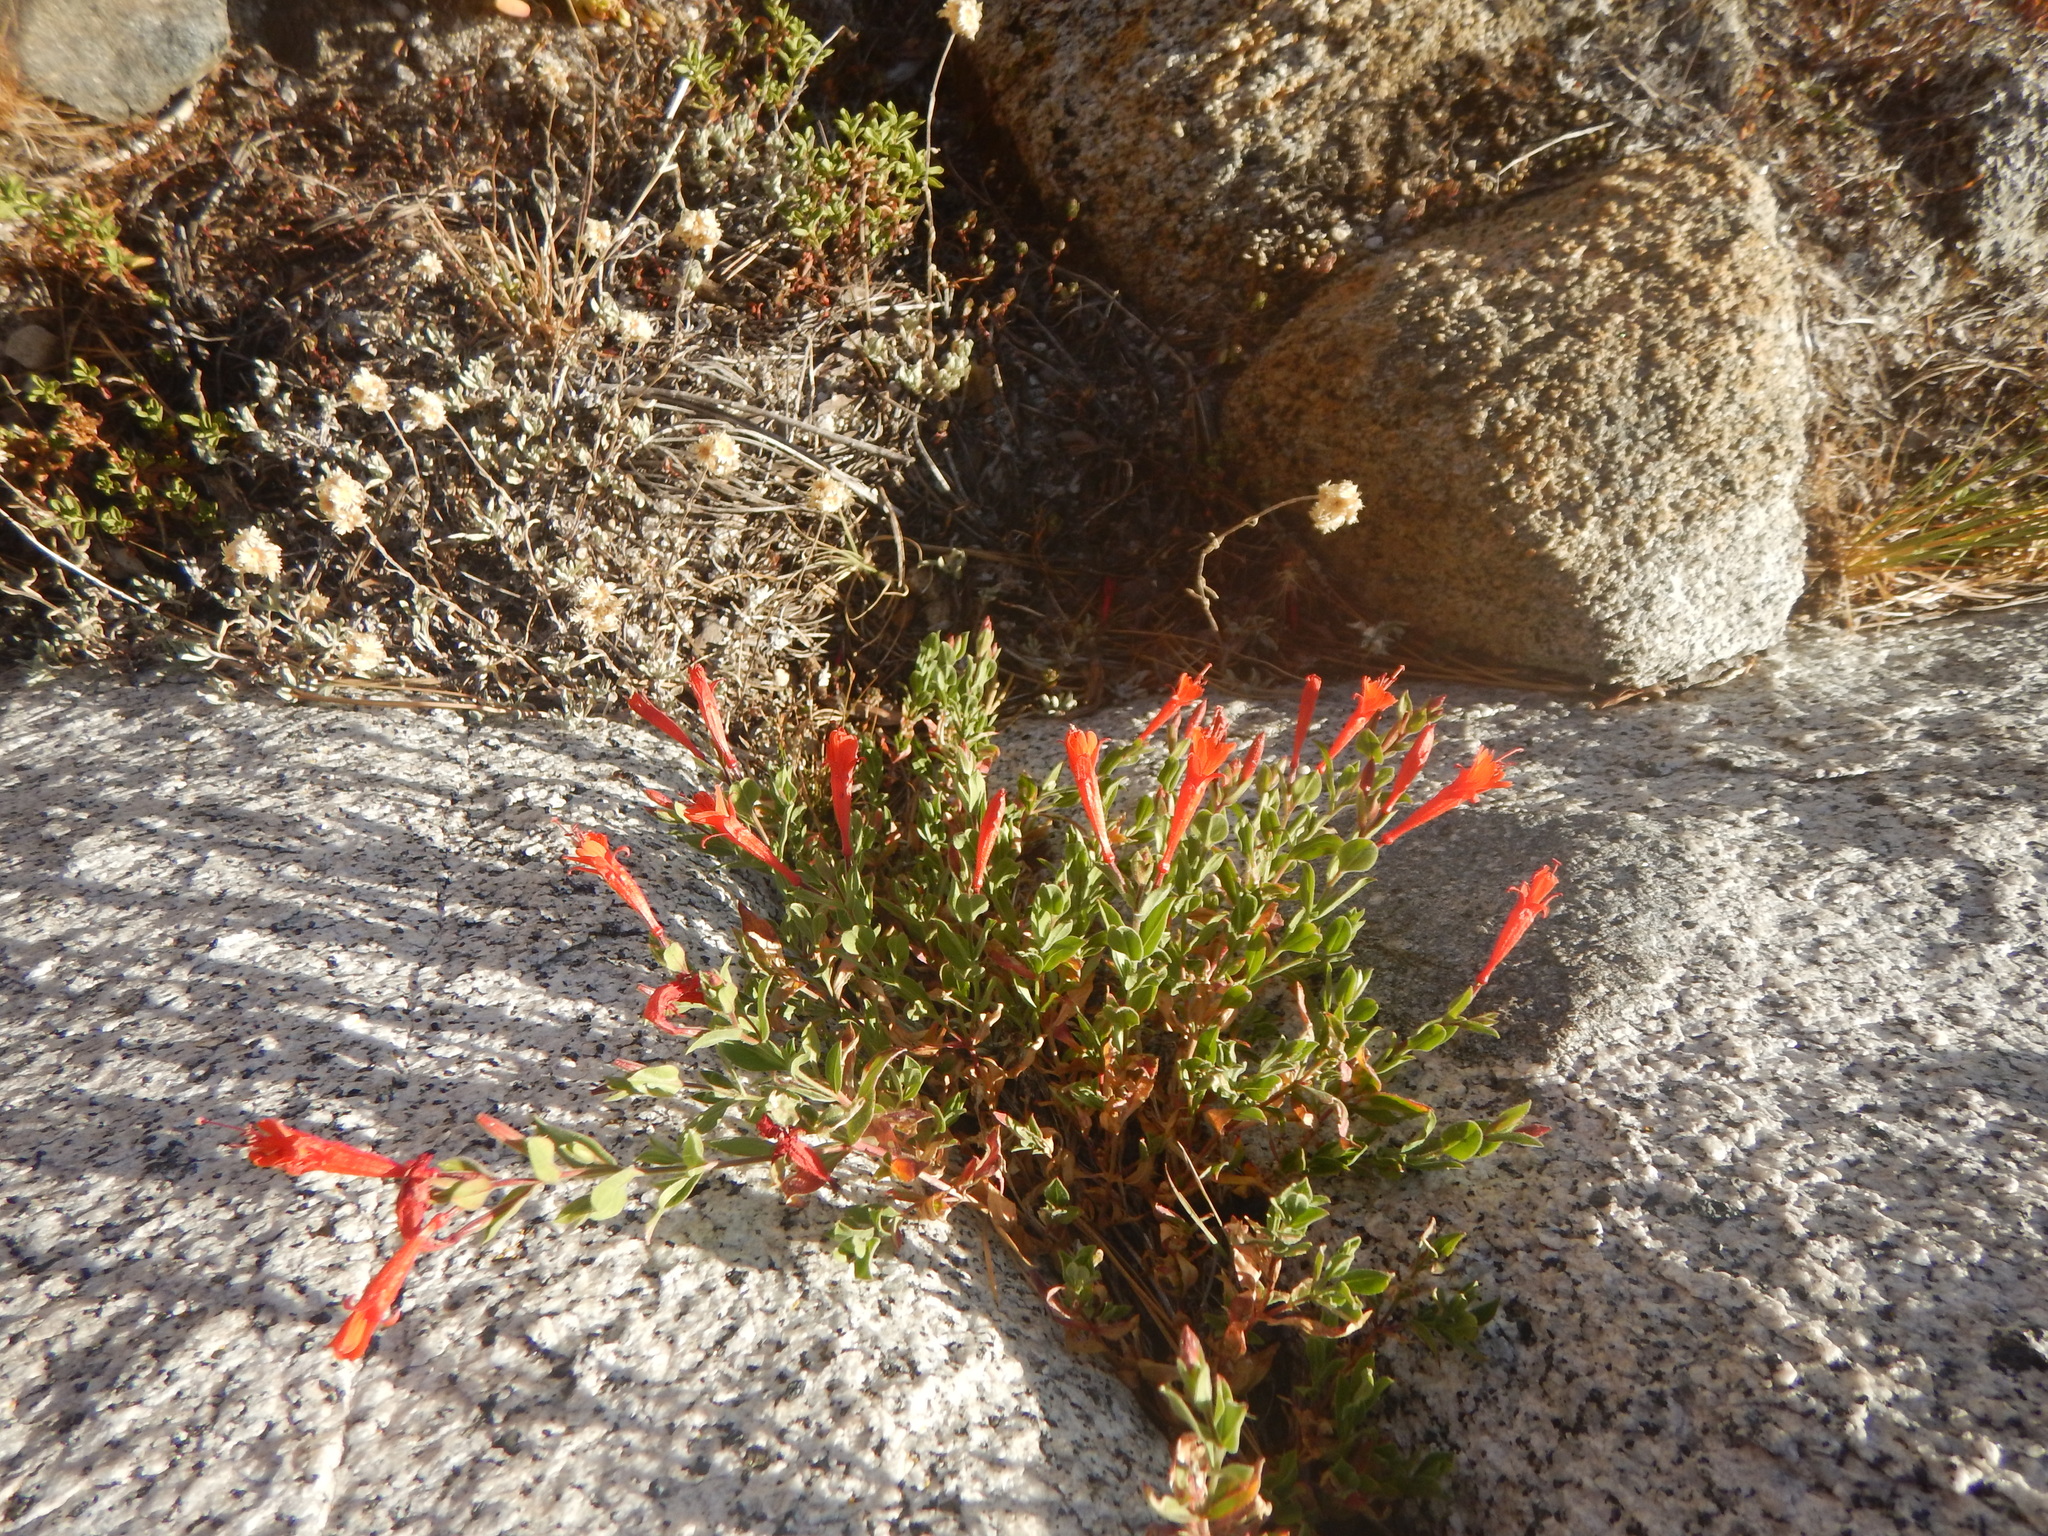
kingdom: Plantae
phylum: Tracheophyta
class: Magnoliopsida
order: Myrtales
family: Onagraceae
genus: Epilobium
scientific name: Epilobium canum
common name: California-fuchsia
